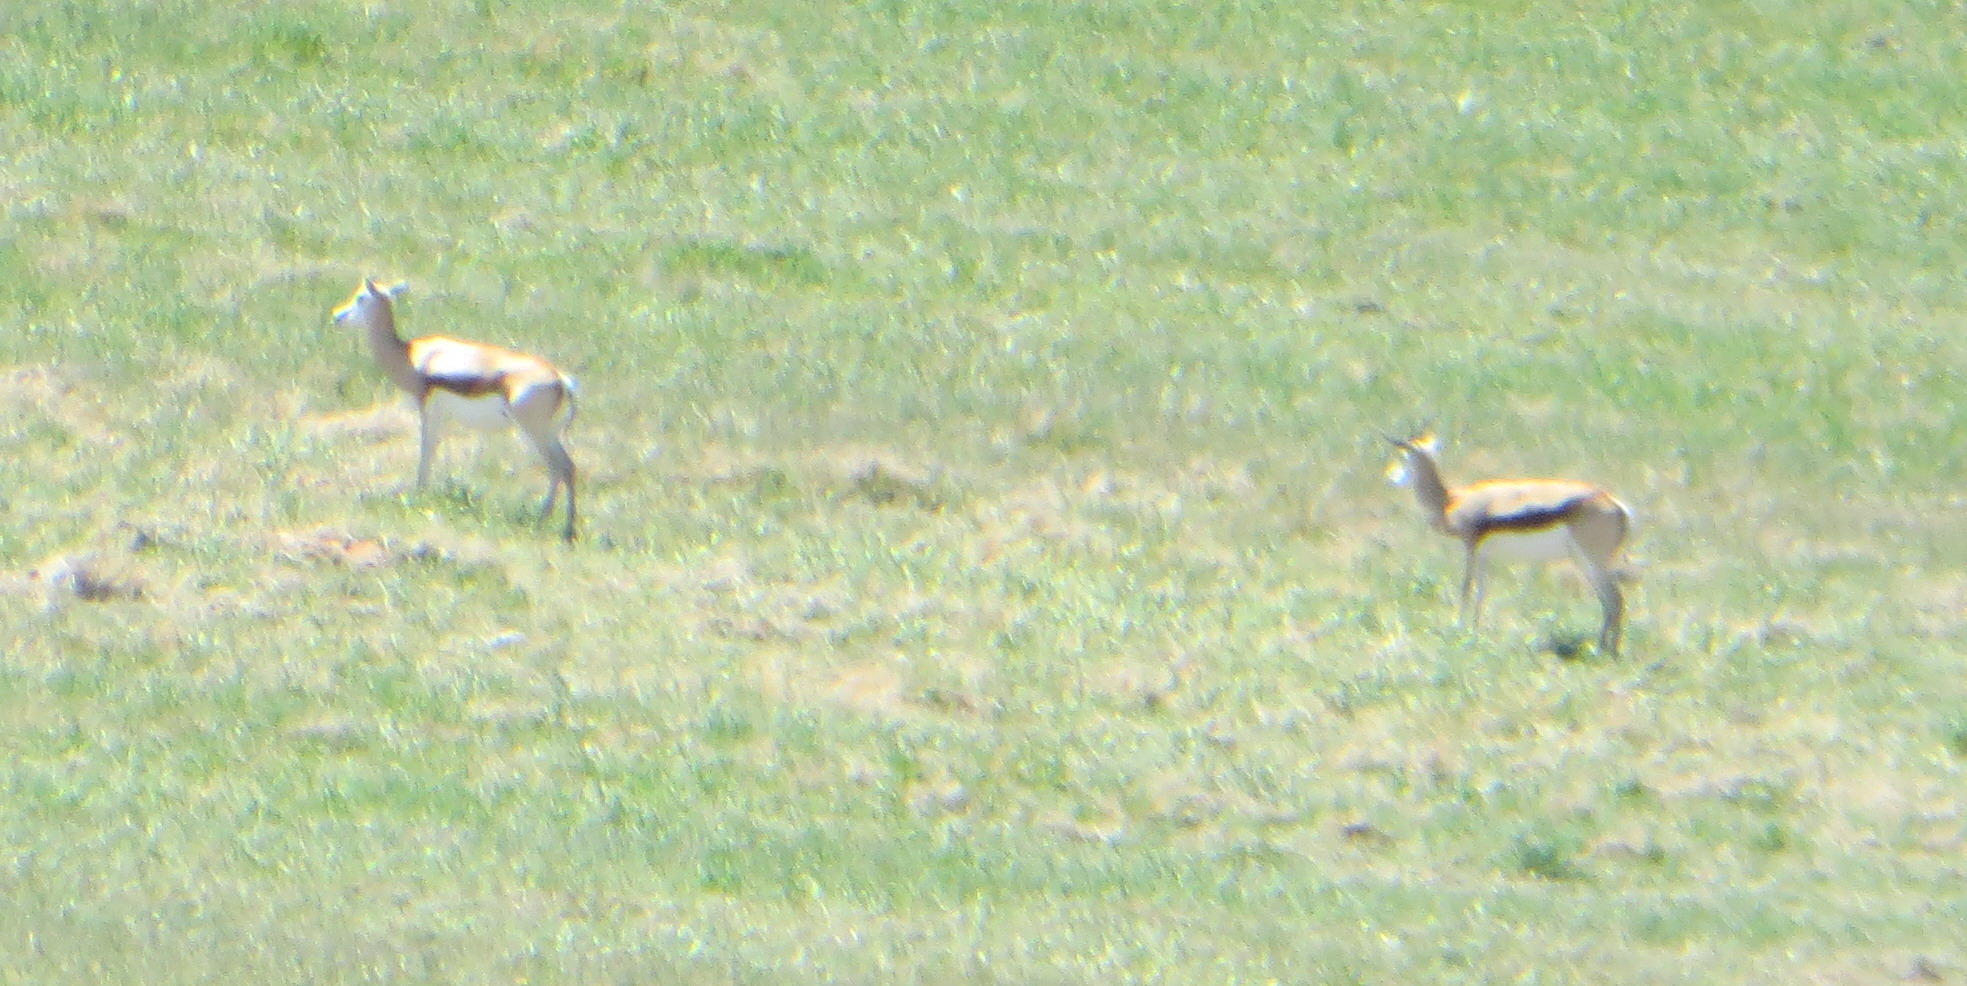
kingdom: Animalia
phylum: Chordata
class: Mammalia
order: Artiodactyla
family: Bovidae
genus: Antidorcas
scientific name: Antidorcas marsupialis
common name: Springbok
